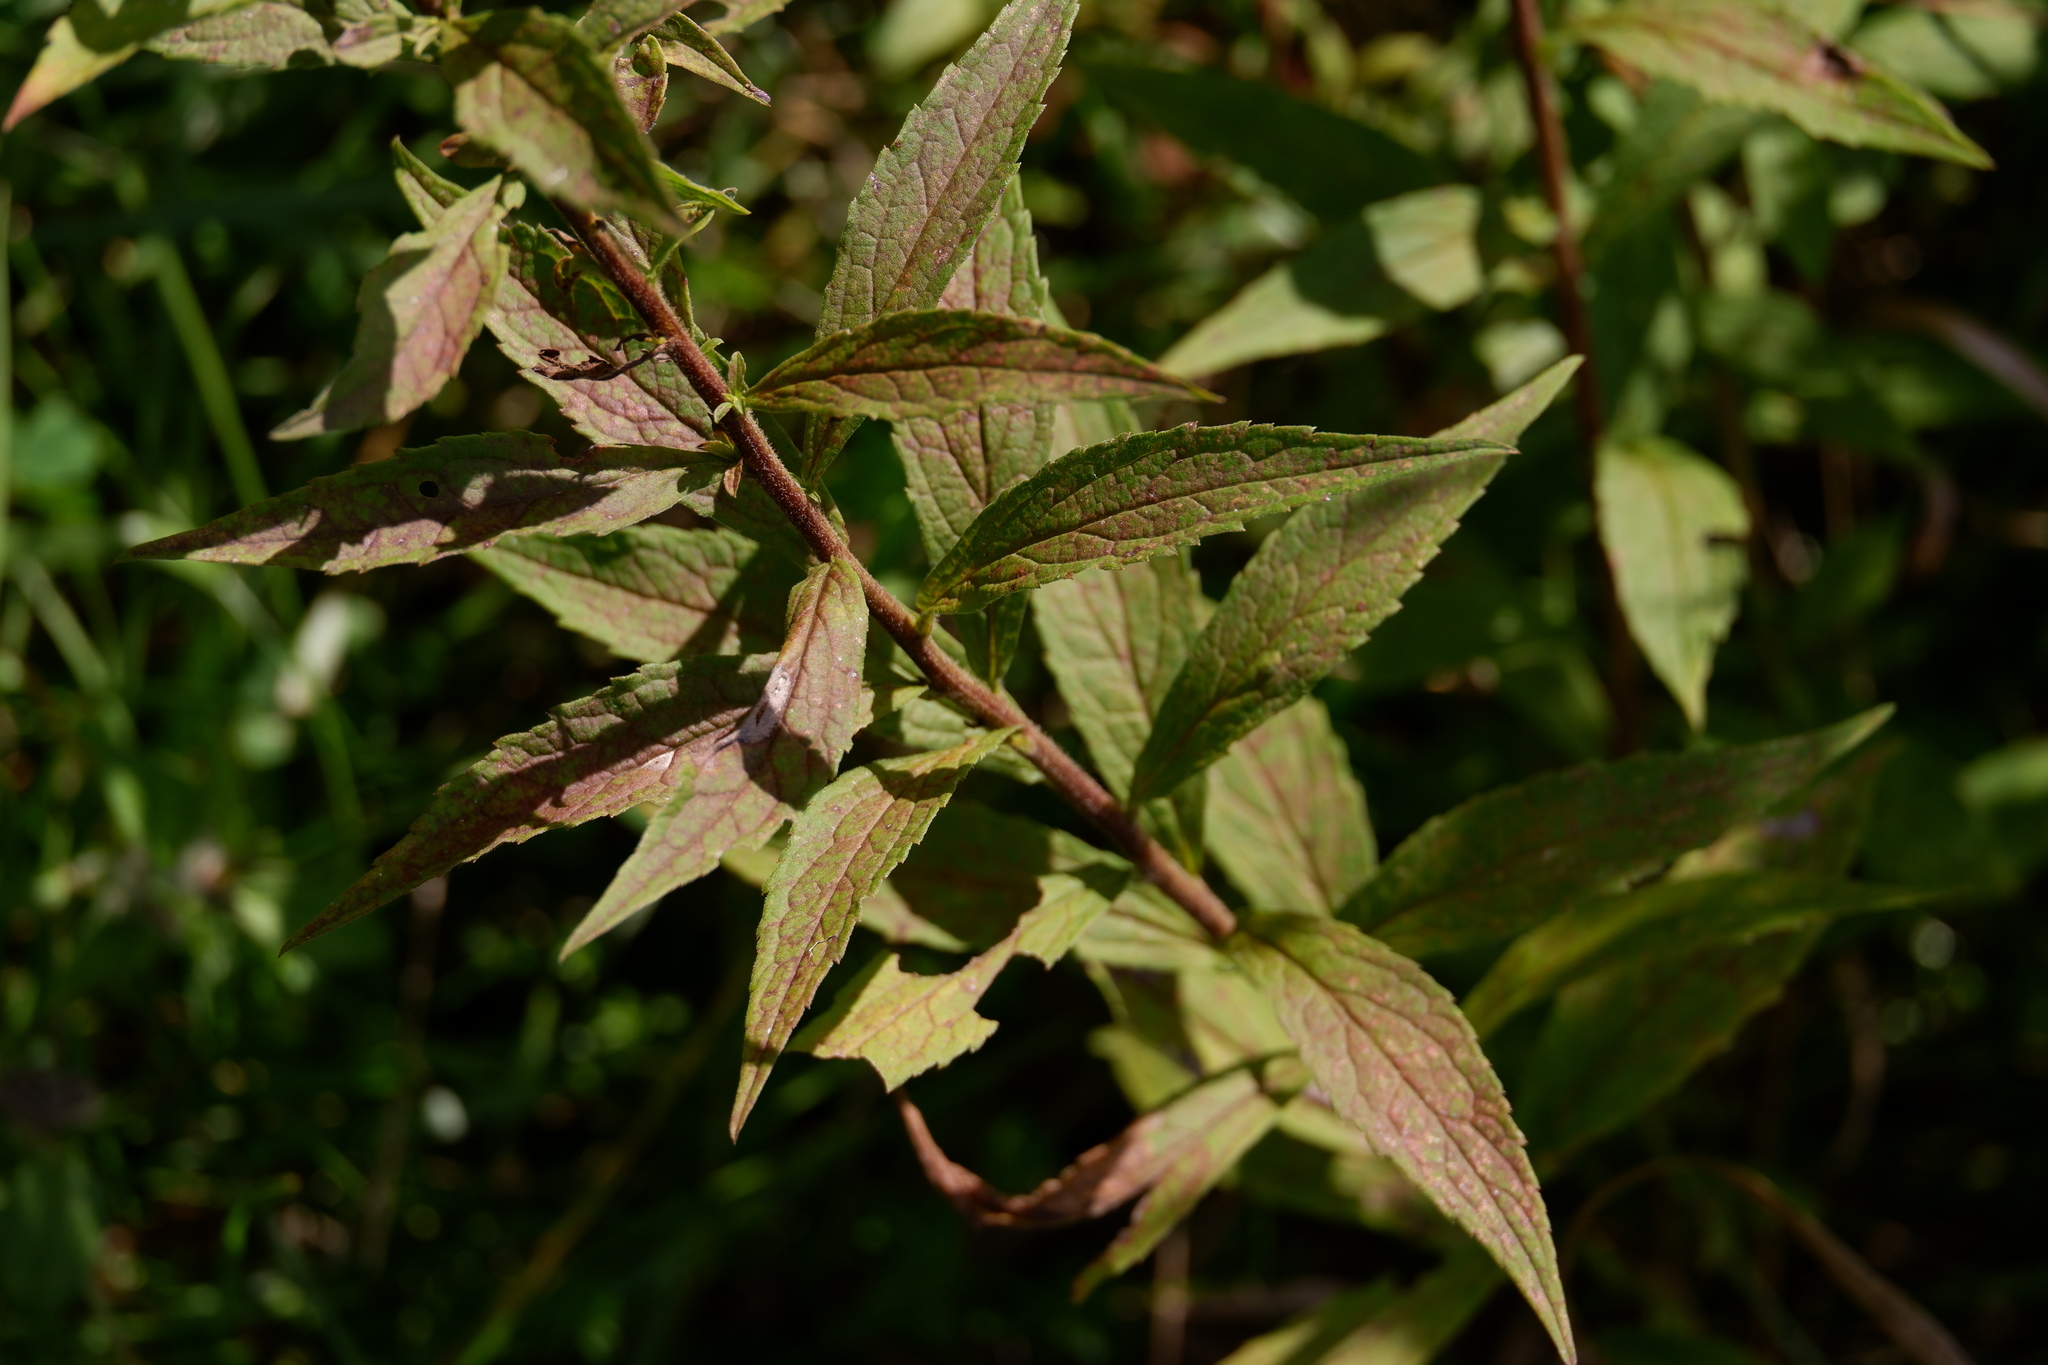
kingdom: Plantae
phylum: Tracheophyta
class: Magnoliopsida
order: Asterales
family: Asteraceae
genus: Solidago
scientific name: Solidago rugosa
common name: Rough-stemmed goldenrod
